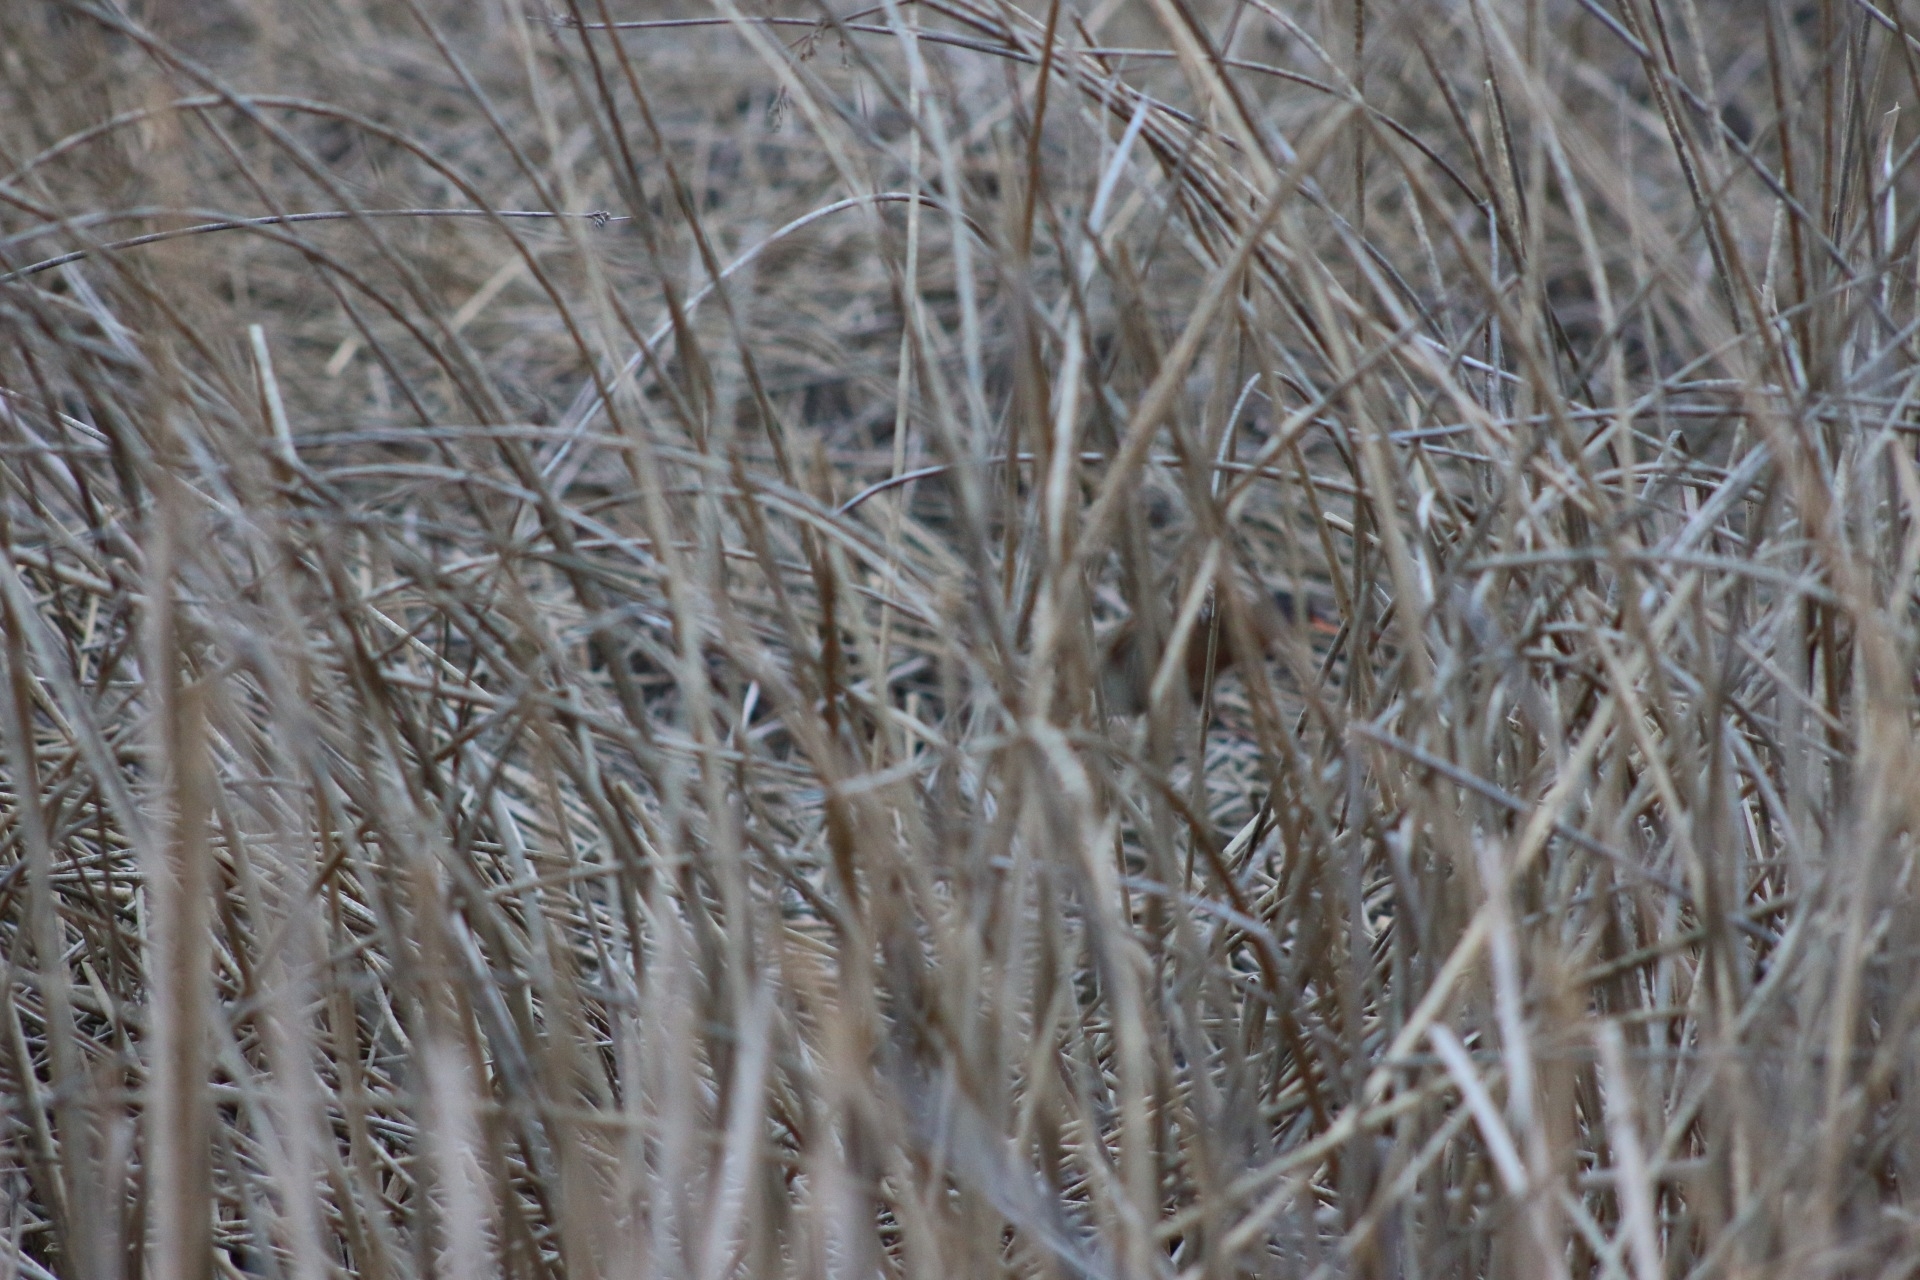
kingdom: Animalia
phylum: Chordata
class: Aves
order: Gruiformes
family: Rallidae
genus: Rallus
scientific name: Rallus limicola
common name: Virginia rail
